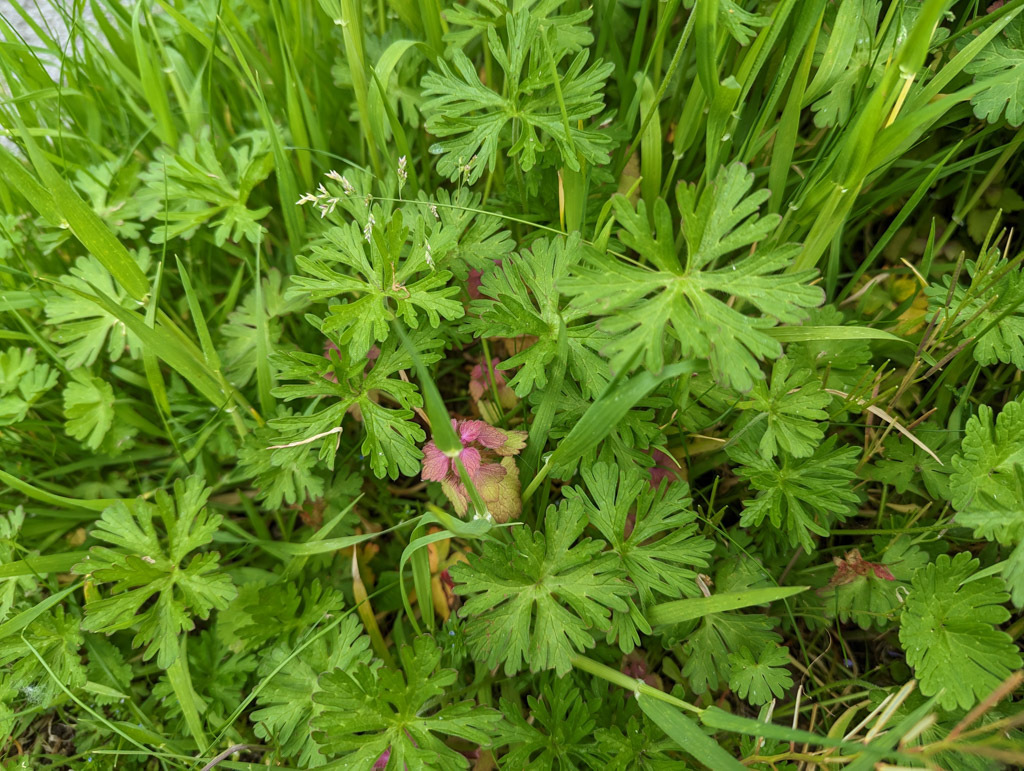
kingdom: Plantae
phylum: Tracheophyta
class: Magnoliopsida
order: Geraniales
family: Geraniaceae
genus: Geranium
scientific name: Geranium dissectum
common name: Cut-leaved crane's-bill
